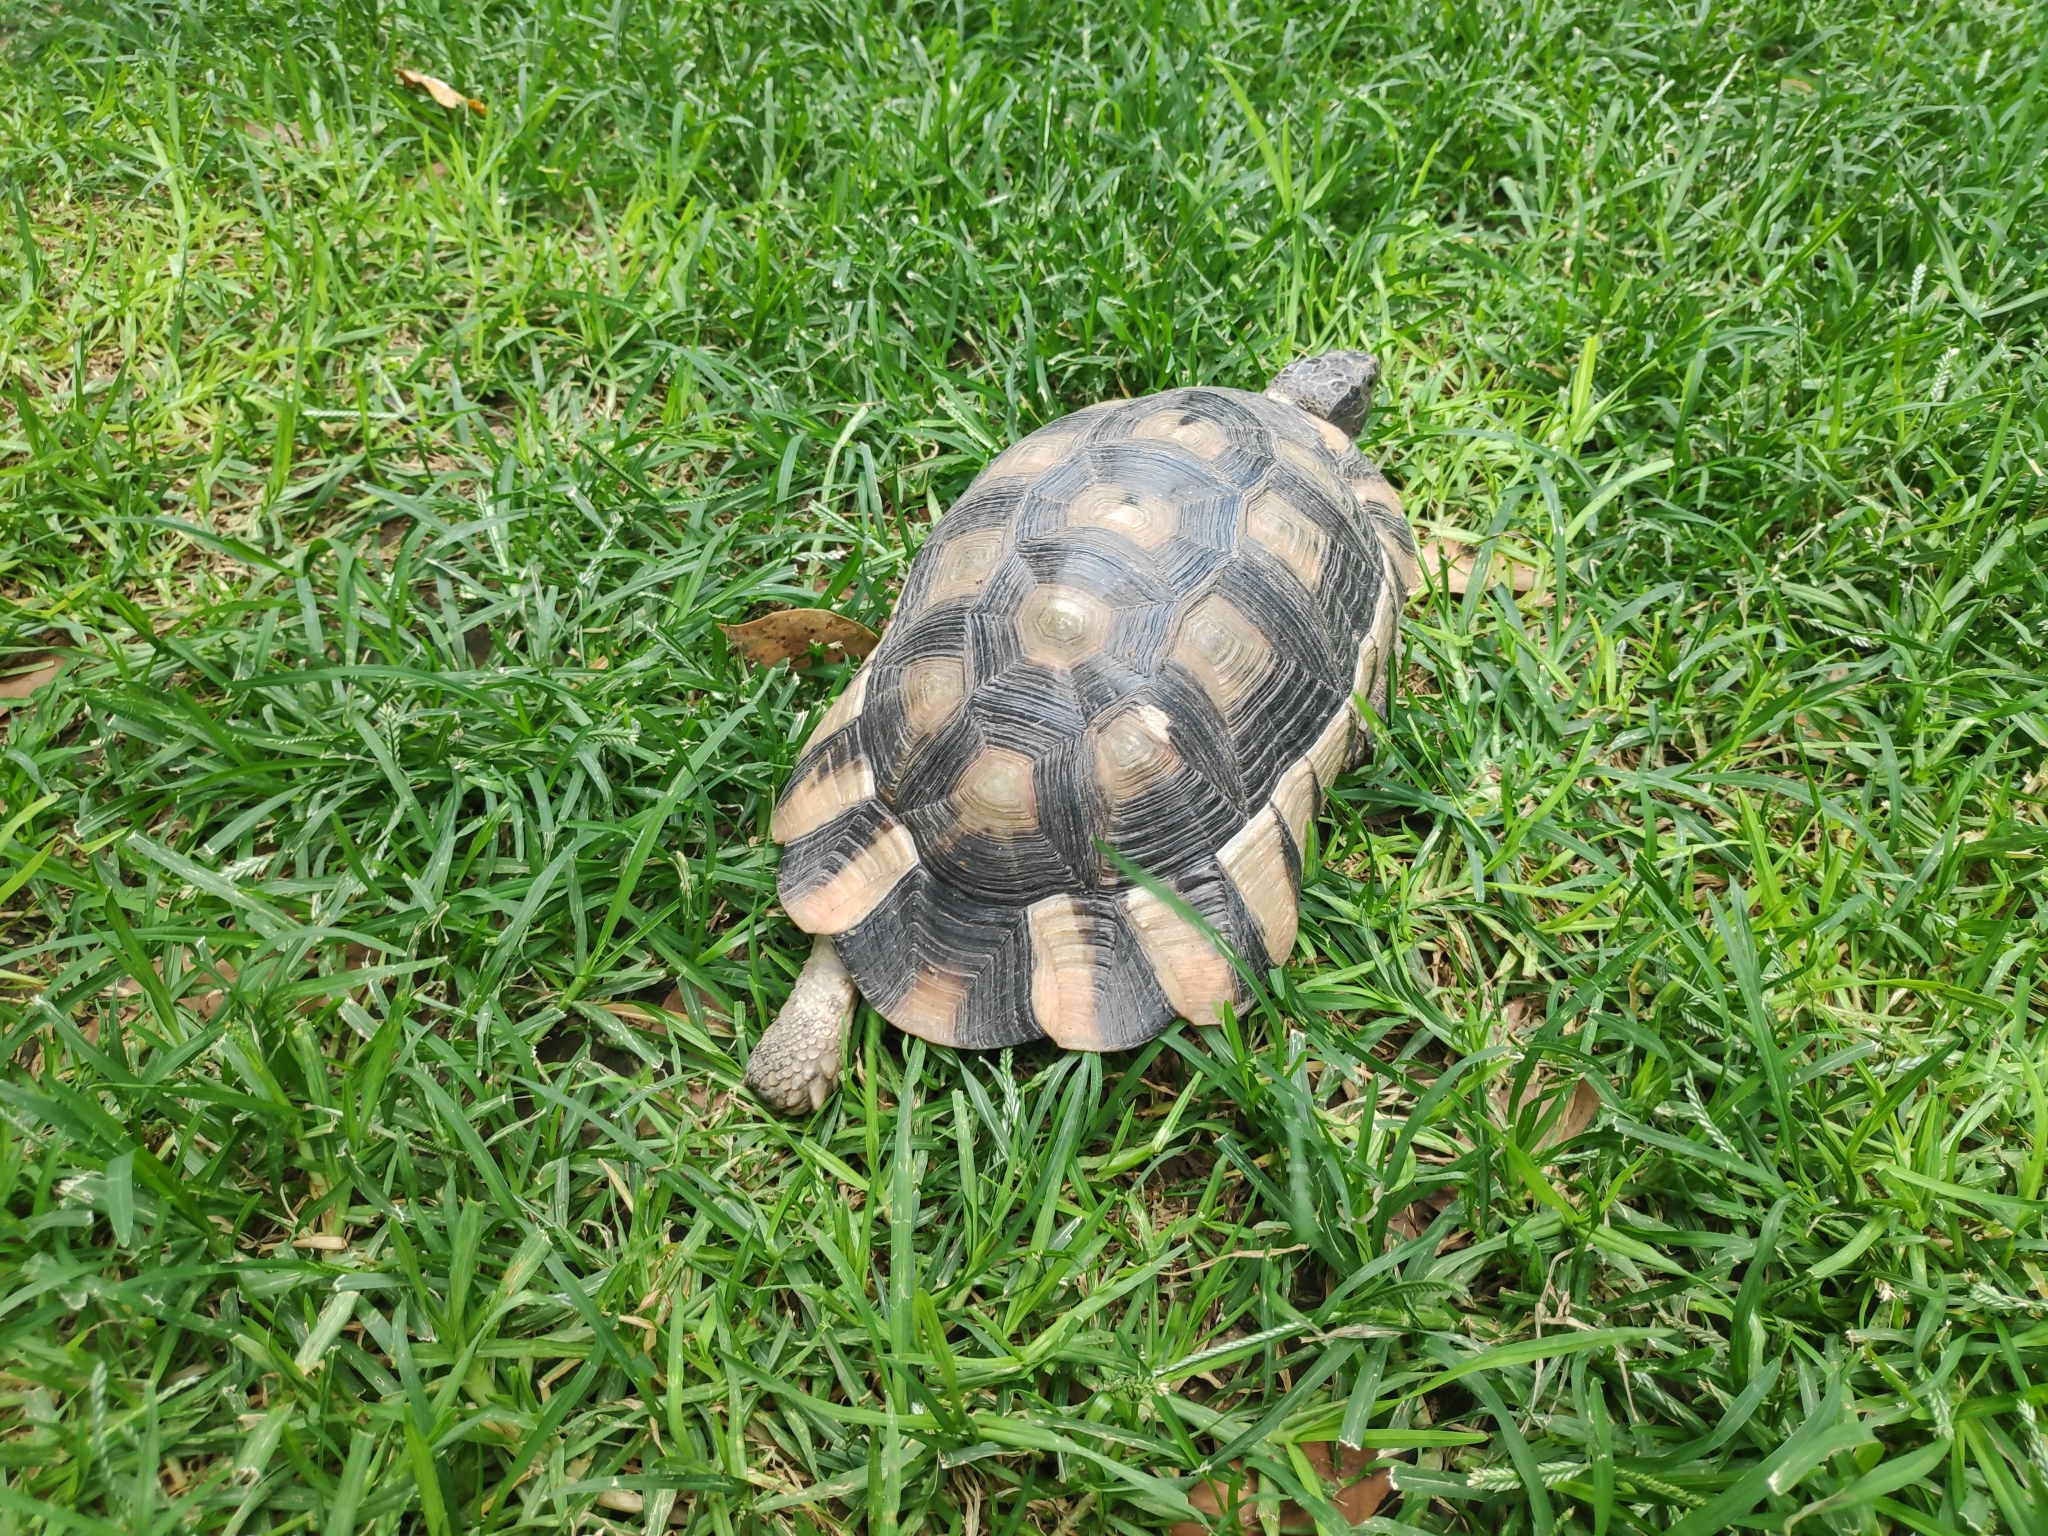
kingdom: Animalia
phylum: Chordata
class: Testudines
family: Testudinidae
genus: Testudo
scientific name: Testudo marginata
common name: Marginated tortoise
